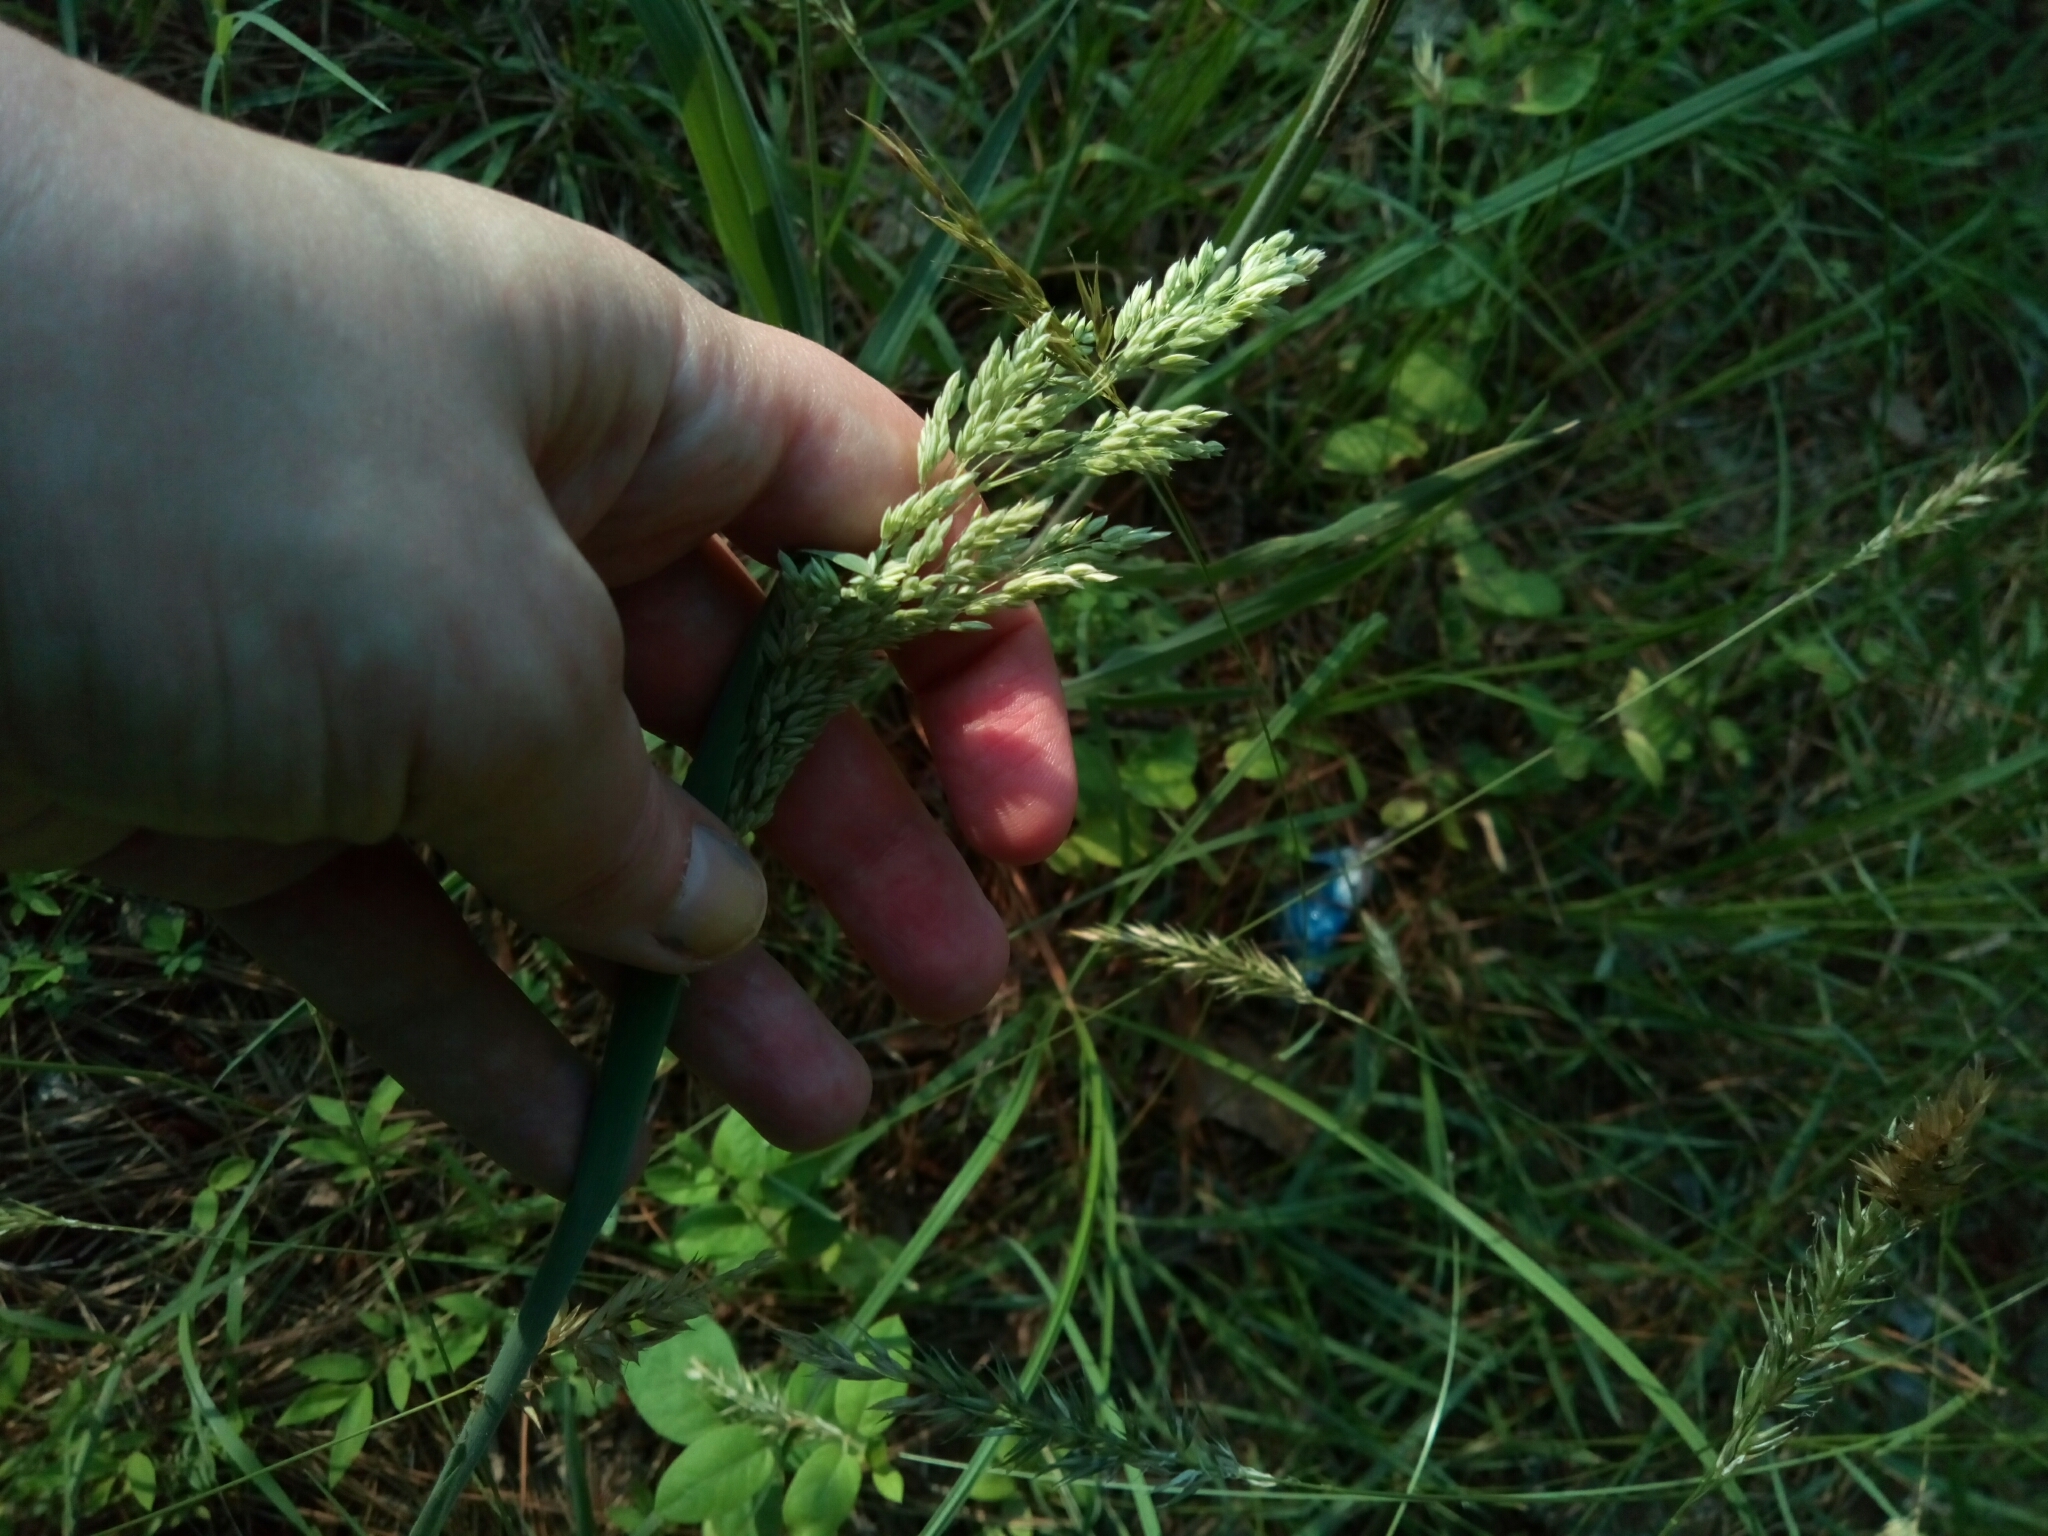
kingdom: Plantae
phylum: Tracheophyta
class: Liliopsida
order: Poales
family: Poaceae
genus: Holcus
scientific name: Holcus lanatus
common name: Yorkshire-fog
